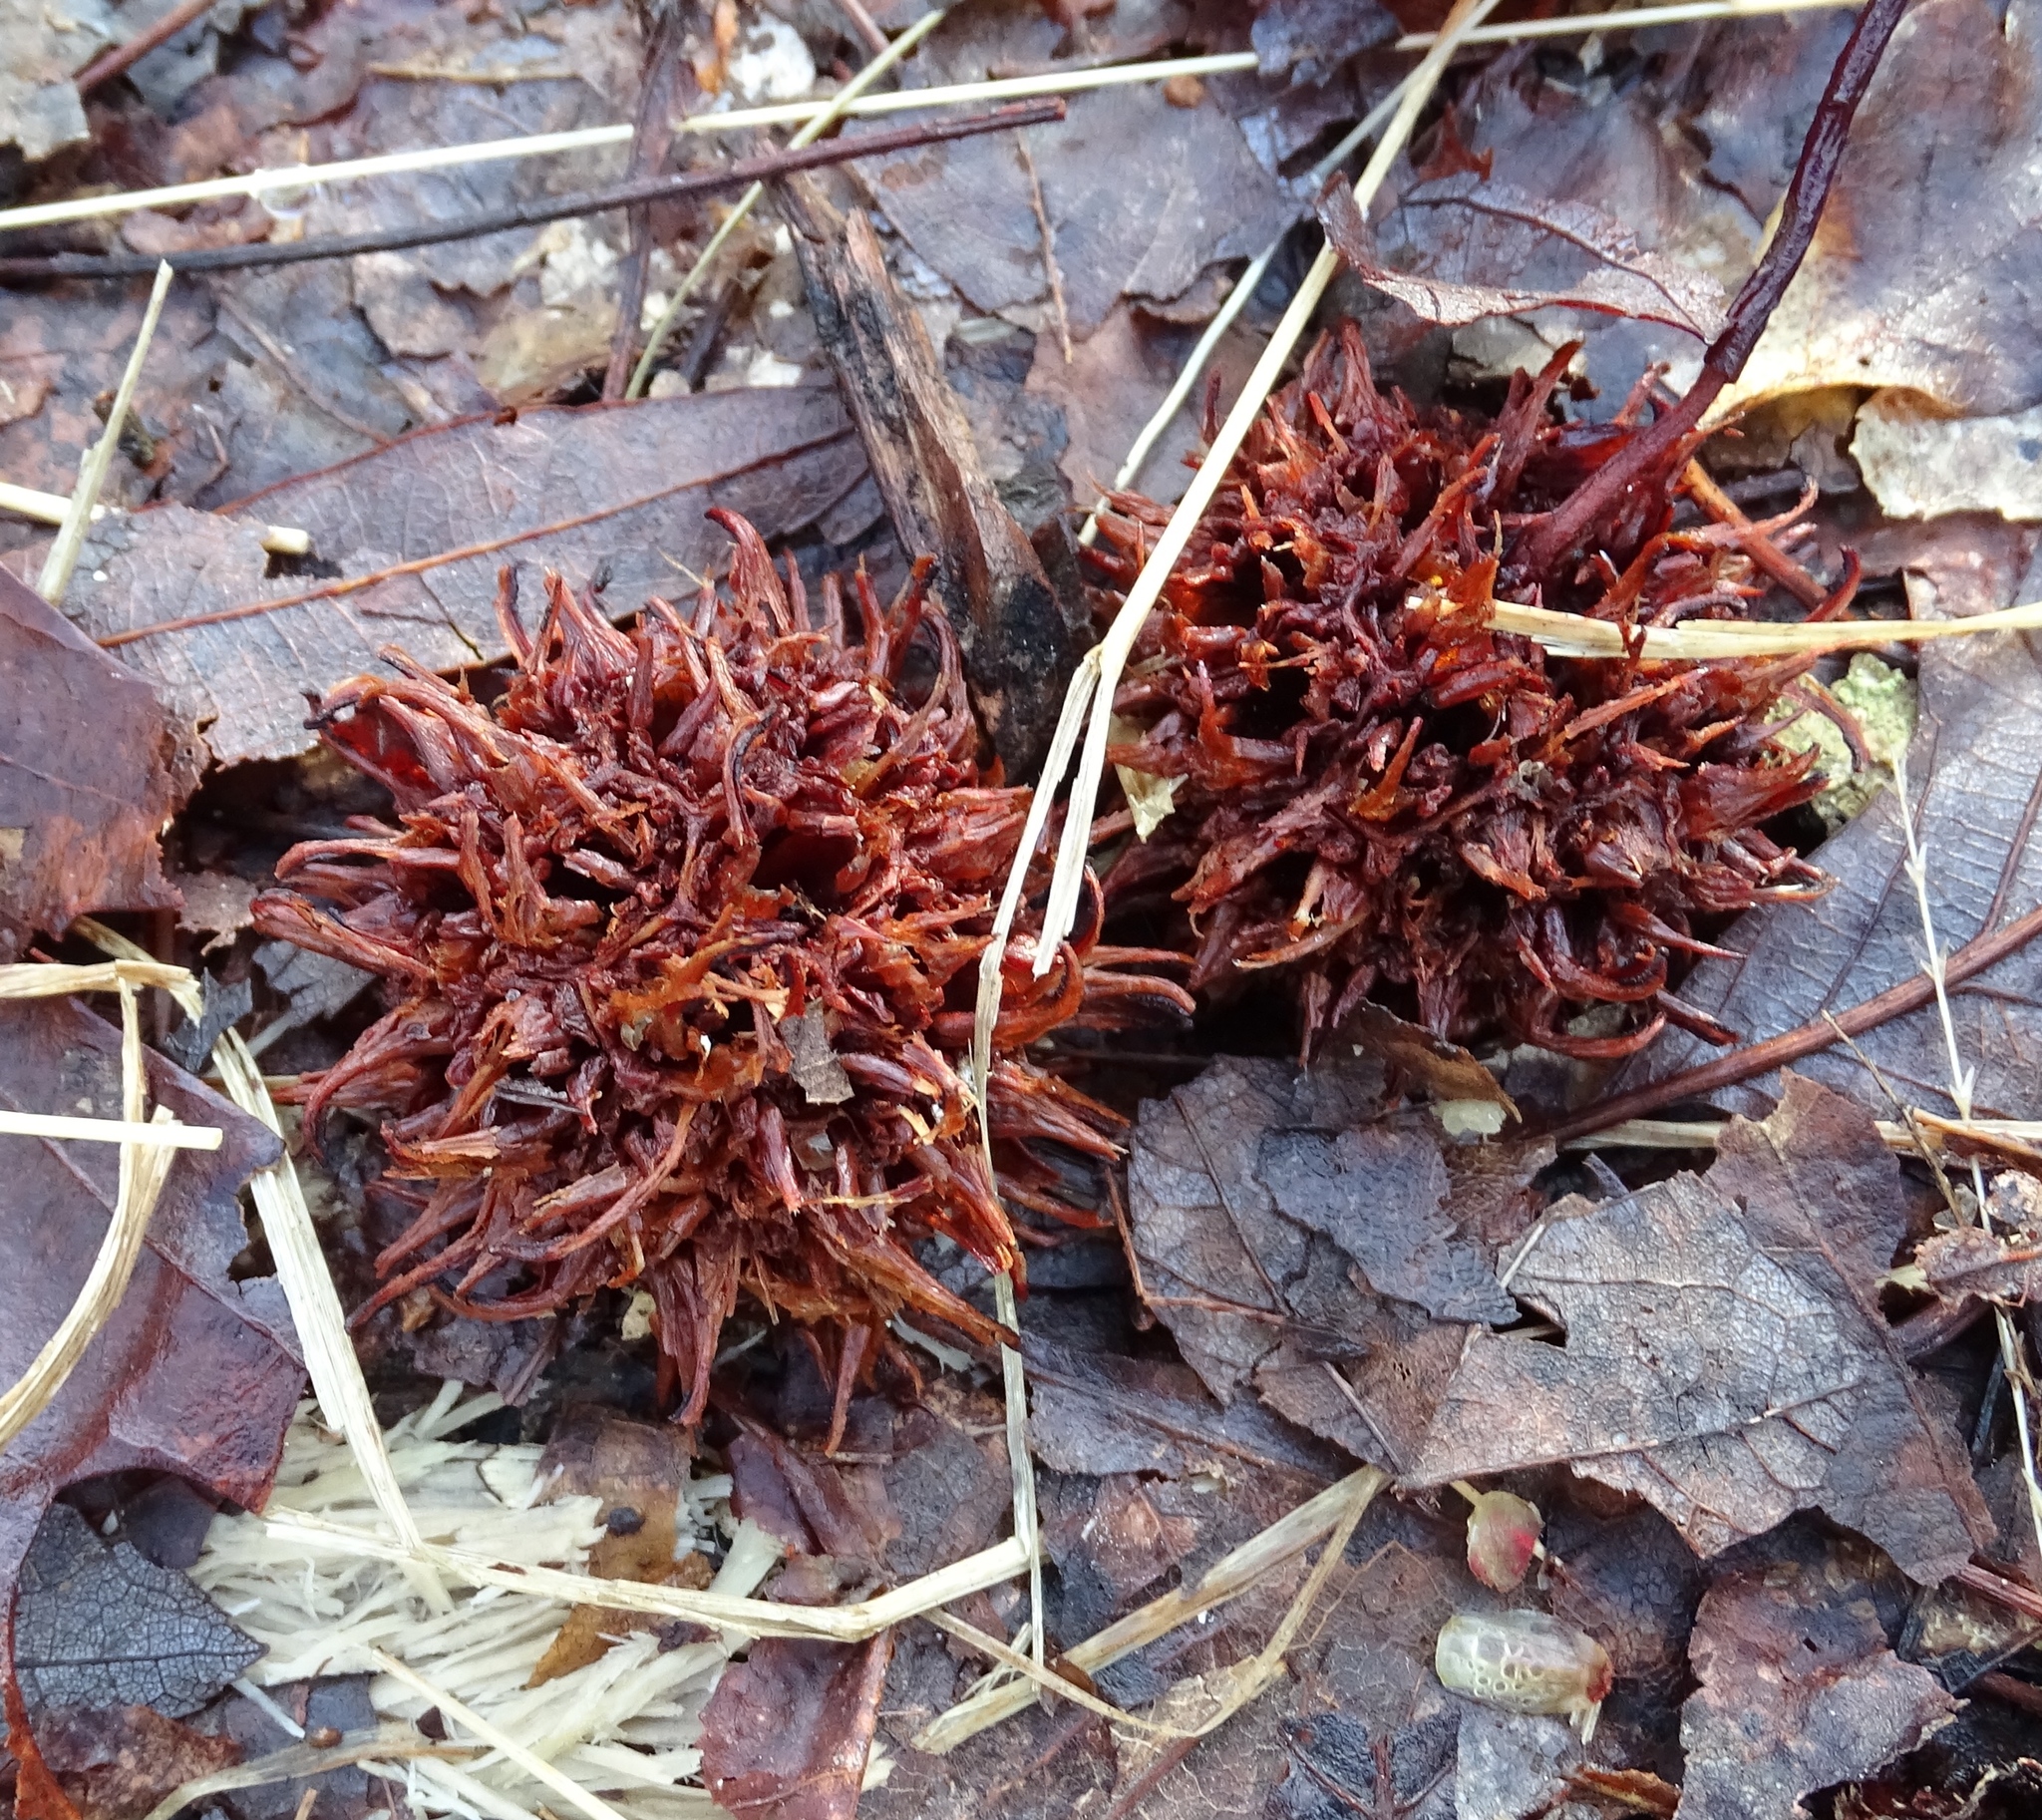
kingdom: Plantae
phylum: Tracheophyta
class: Magnoliopsida
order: Saxifragales
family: Altingiaceae
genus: Liquidambar
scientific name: Liquidambar styraciflua
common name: Sweet gum
